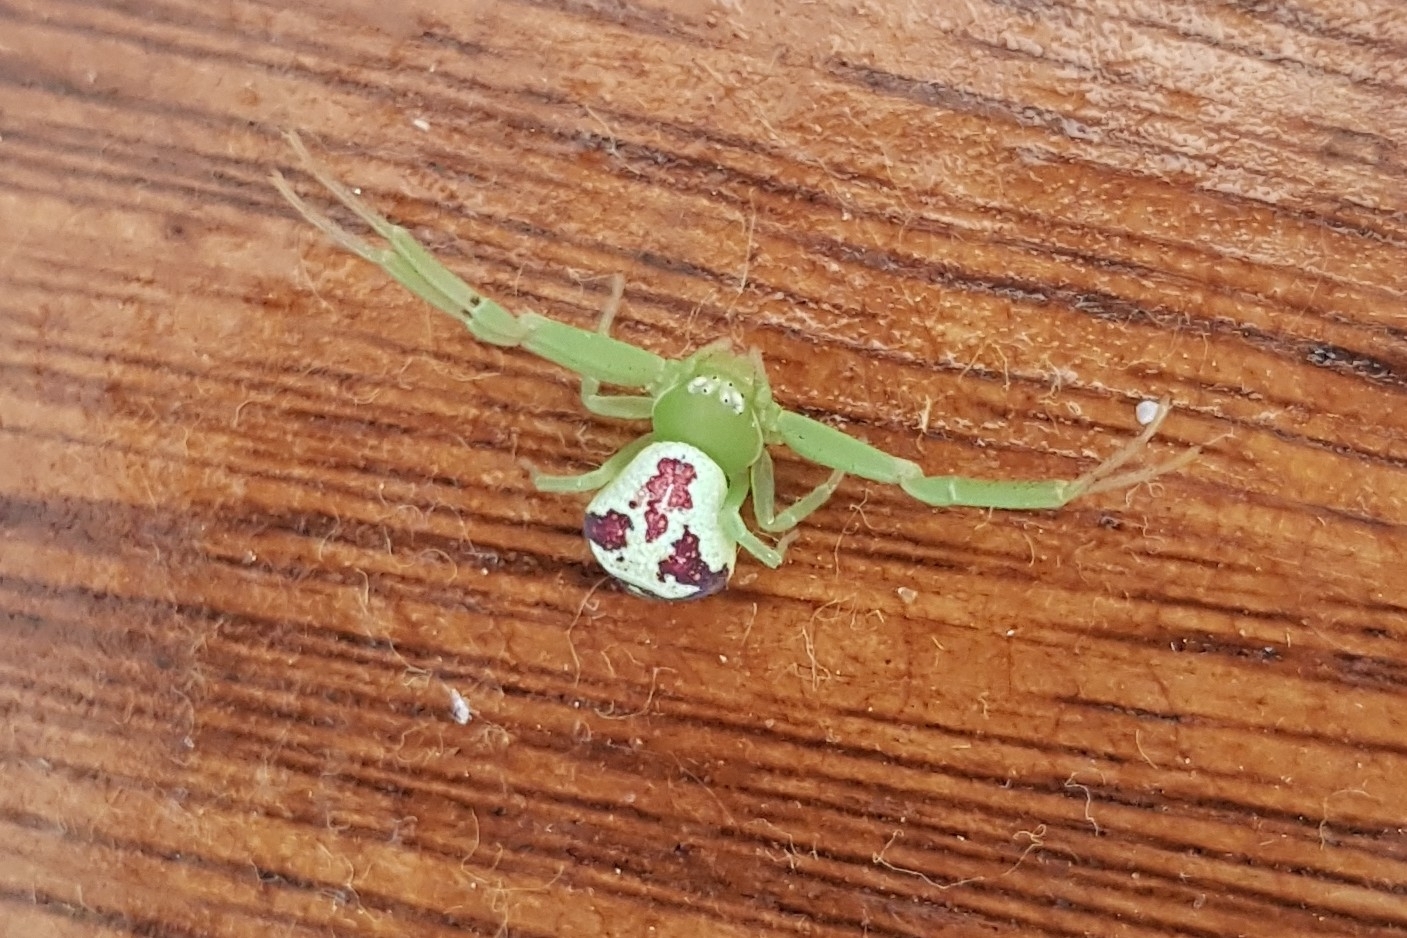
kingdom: Animalia
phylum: Arthropoda
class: Arachnida
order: Araneae
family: Thomisidae
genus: Ebrechtella
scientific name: Ebrechtella tricuspidata
